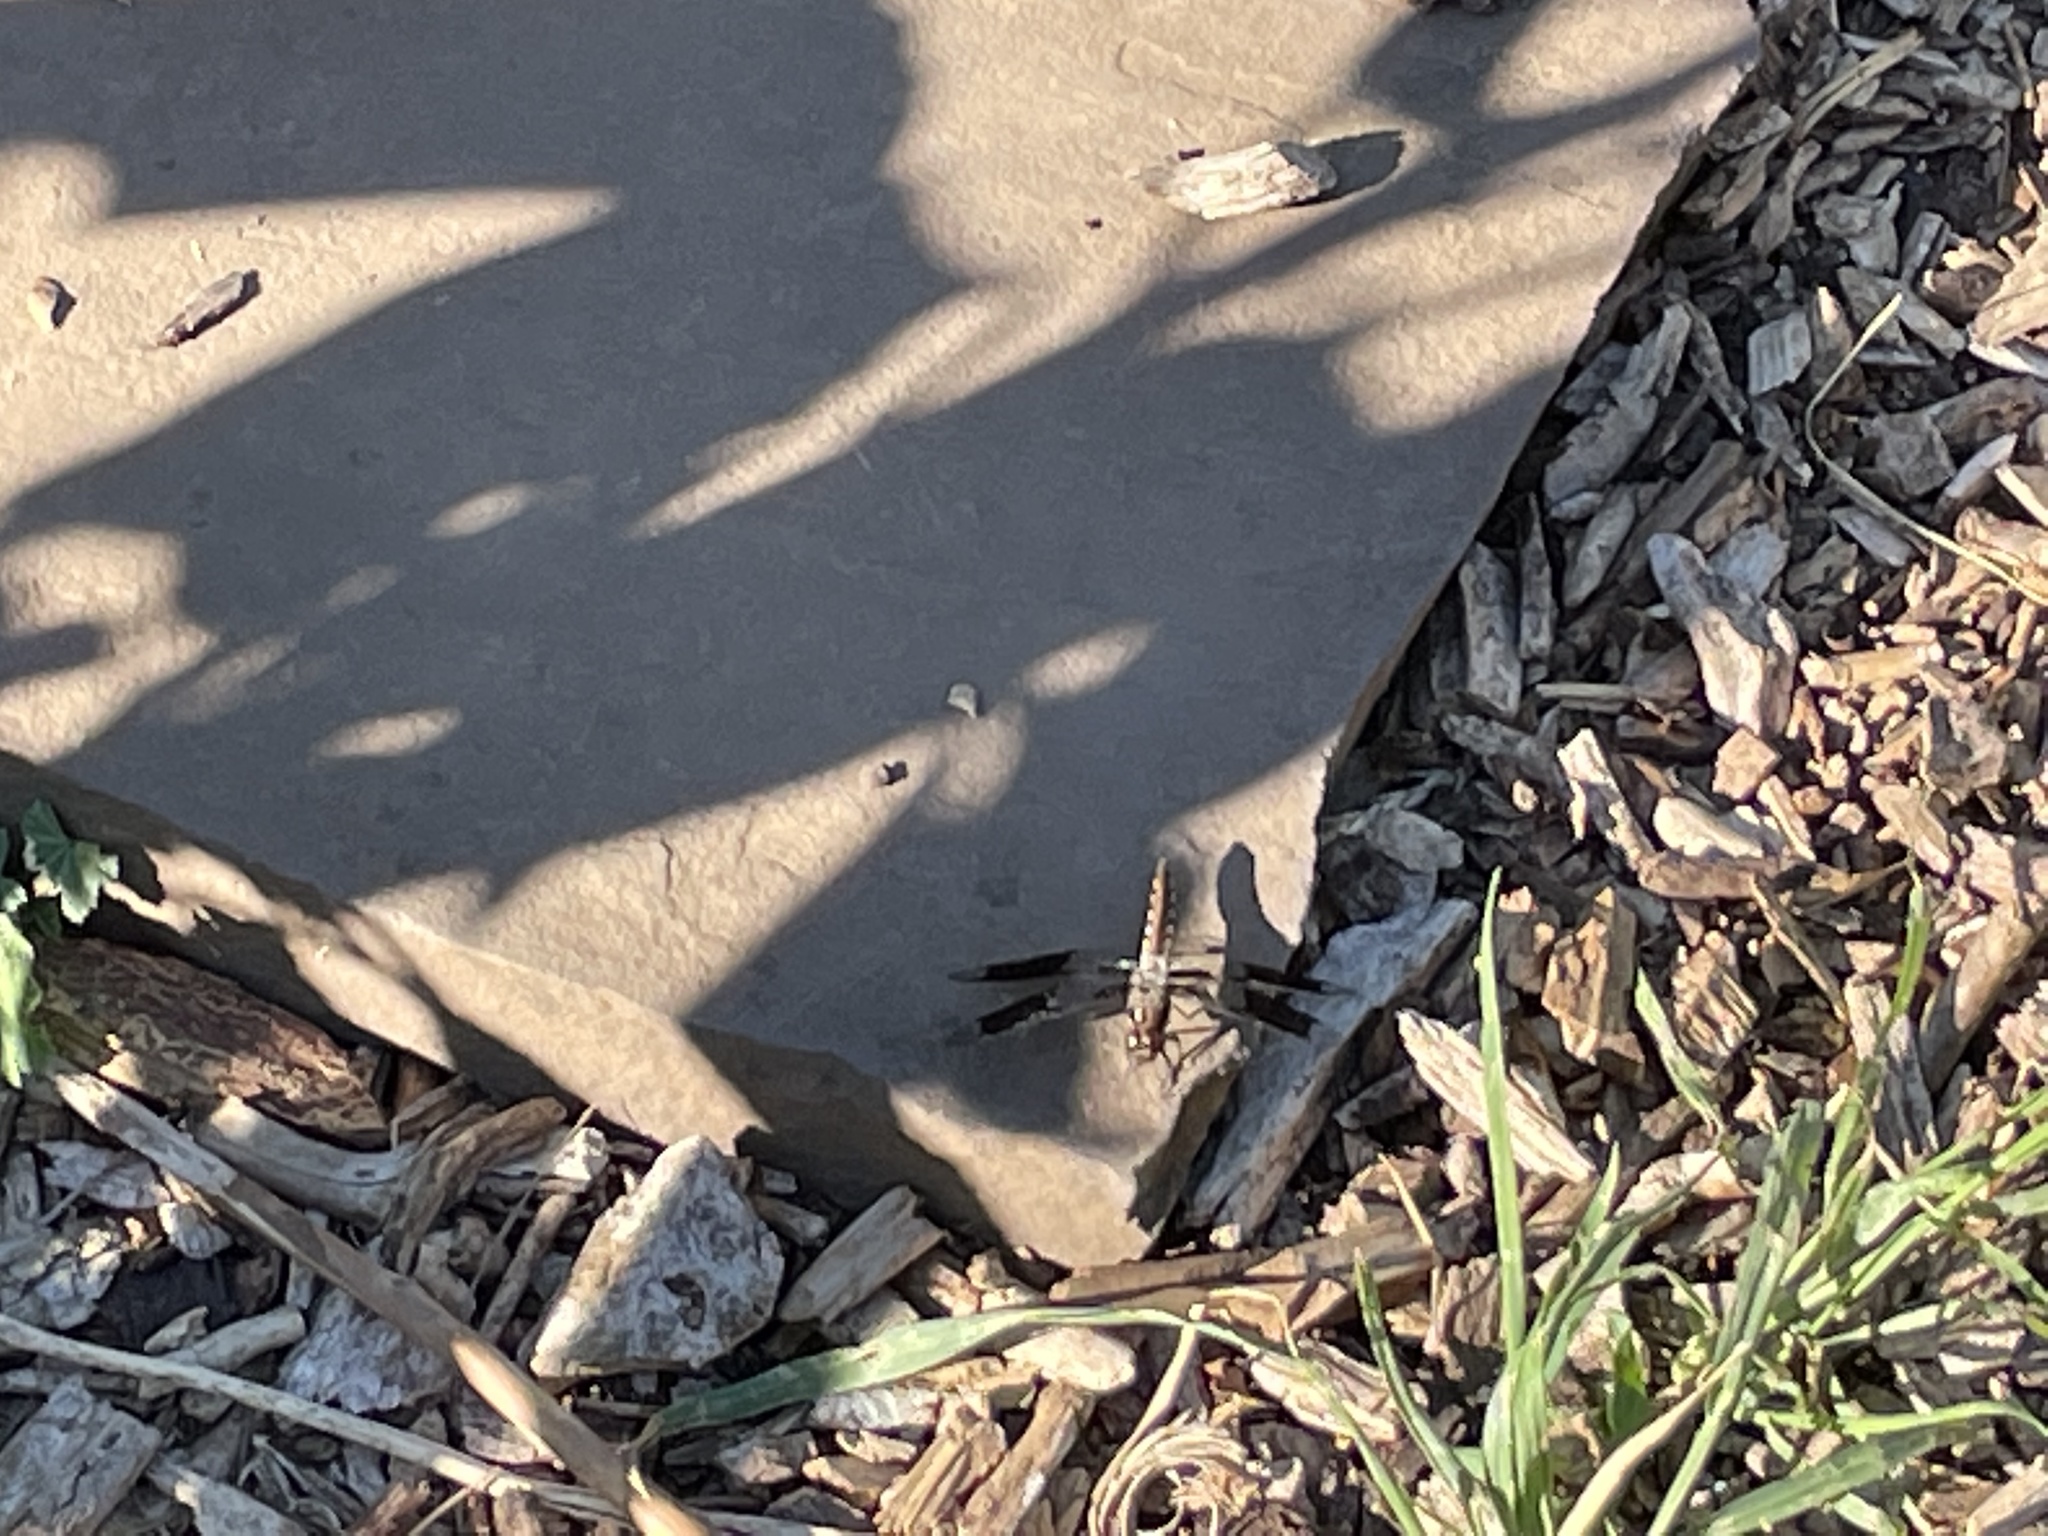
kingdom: Animalia
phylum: Arthropoda
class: Insecta
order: Odonata
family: Libellulidae
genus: Plathemis
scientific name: Plathemis lydia
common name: Common whitetail
